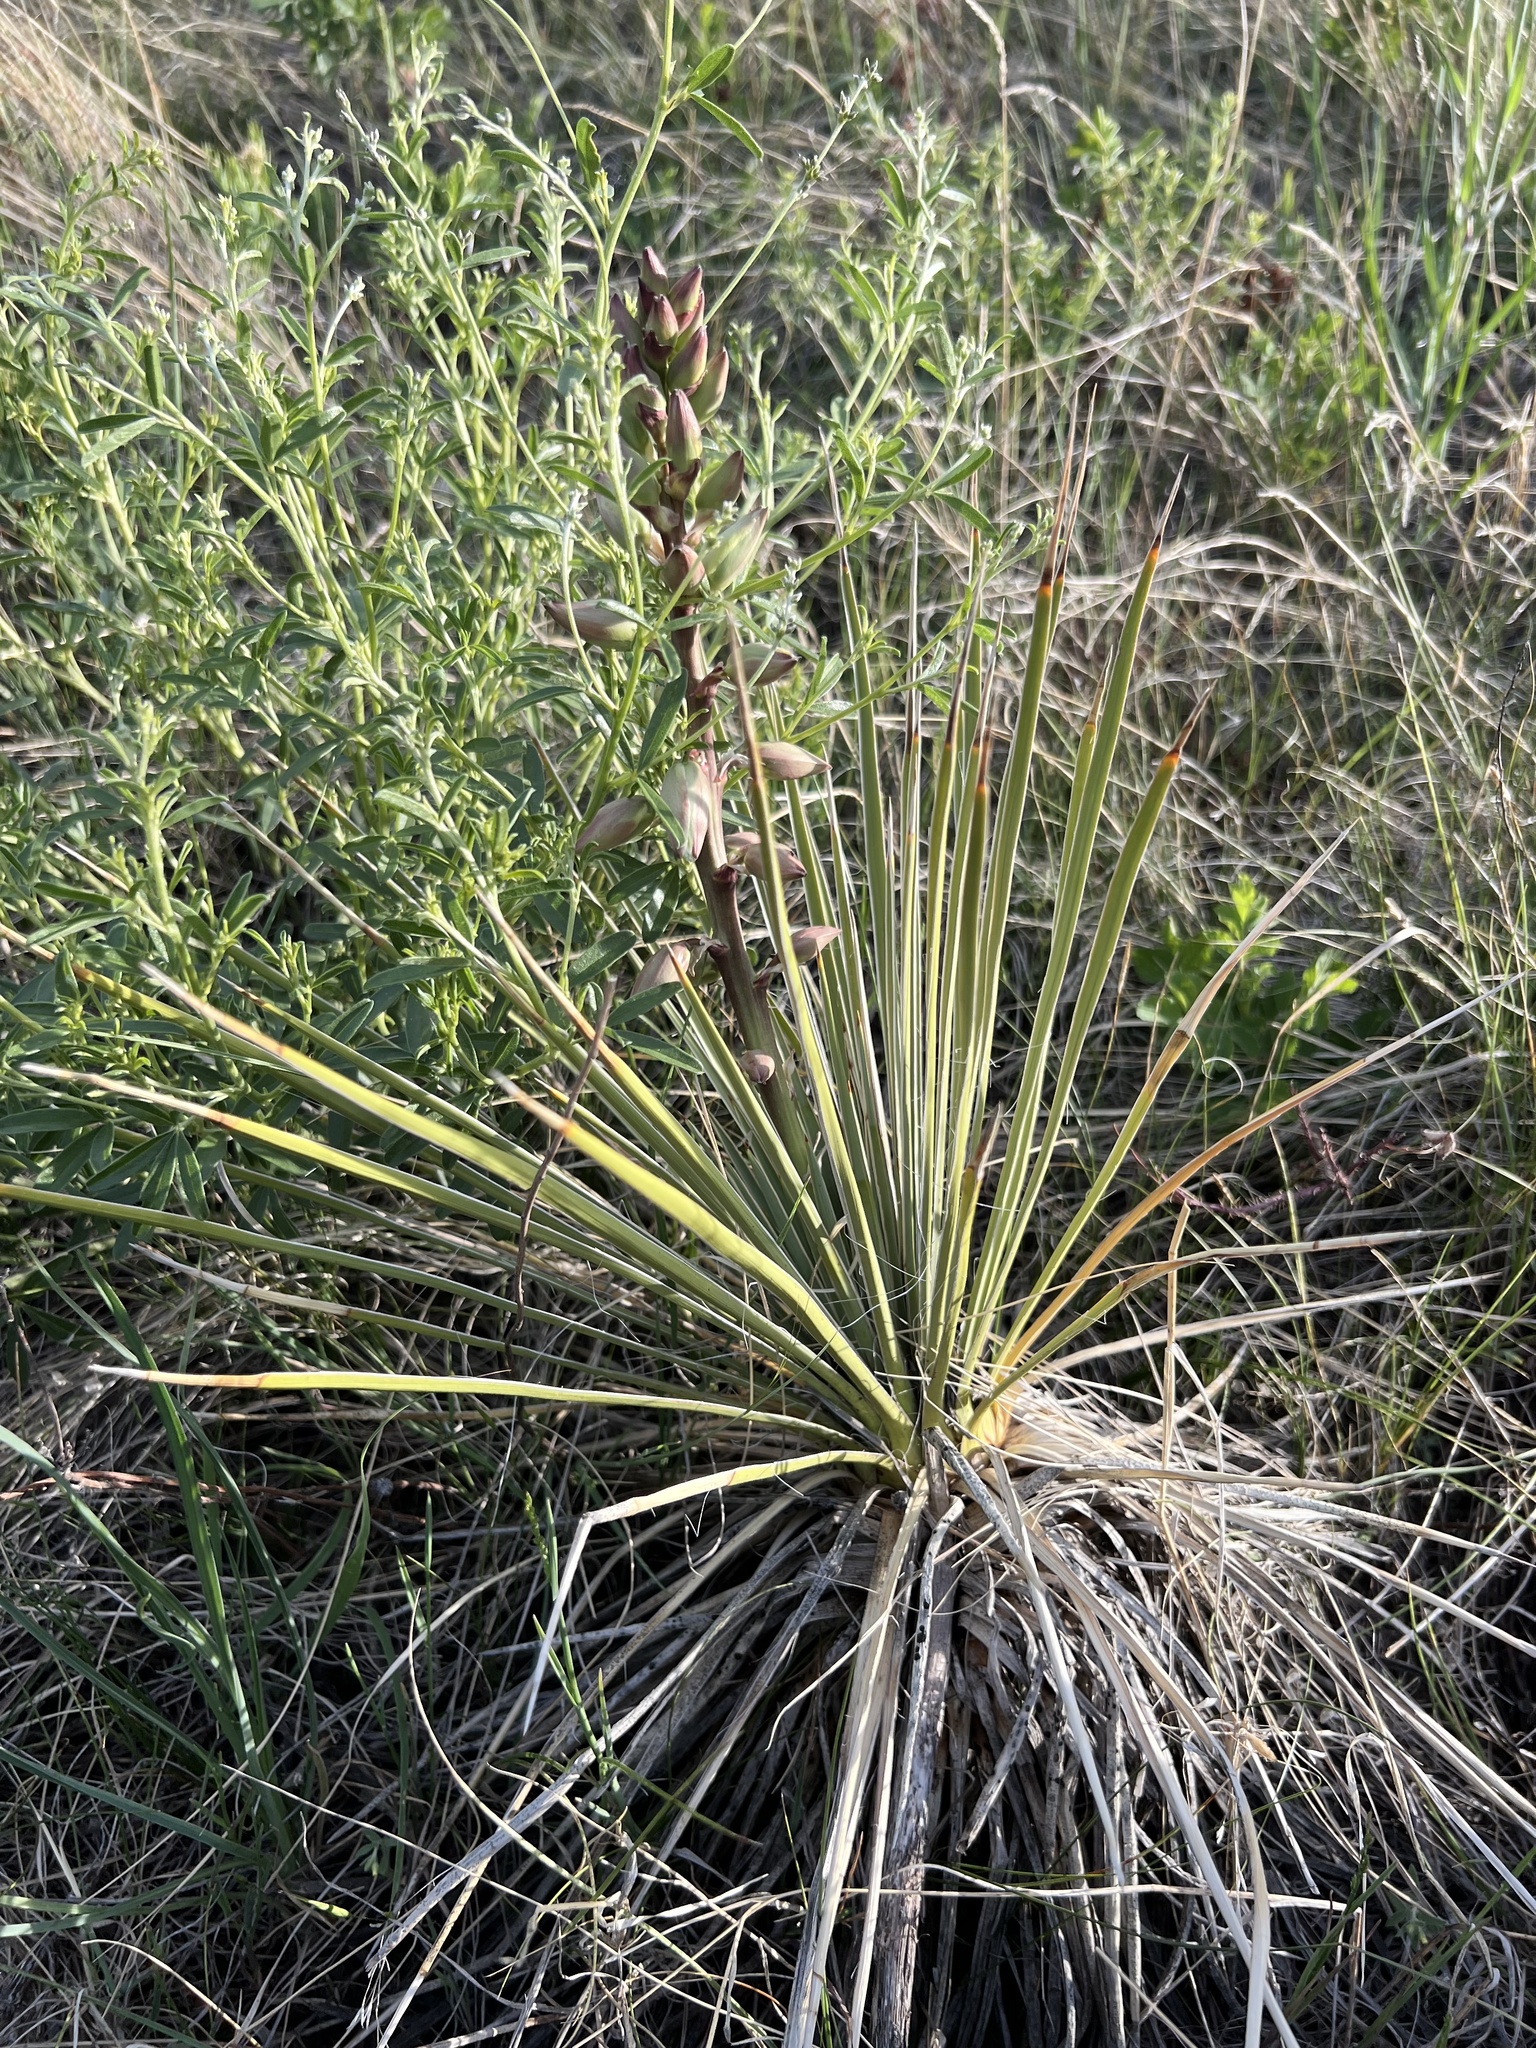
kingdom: Plantae
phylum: Tracheophyta
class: Liliopsida
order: Asparagales
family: Asparagaceae
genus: Yucca
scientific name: Yucca glauca
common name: Great plains yucca
